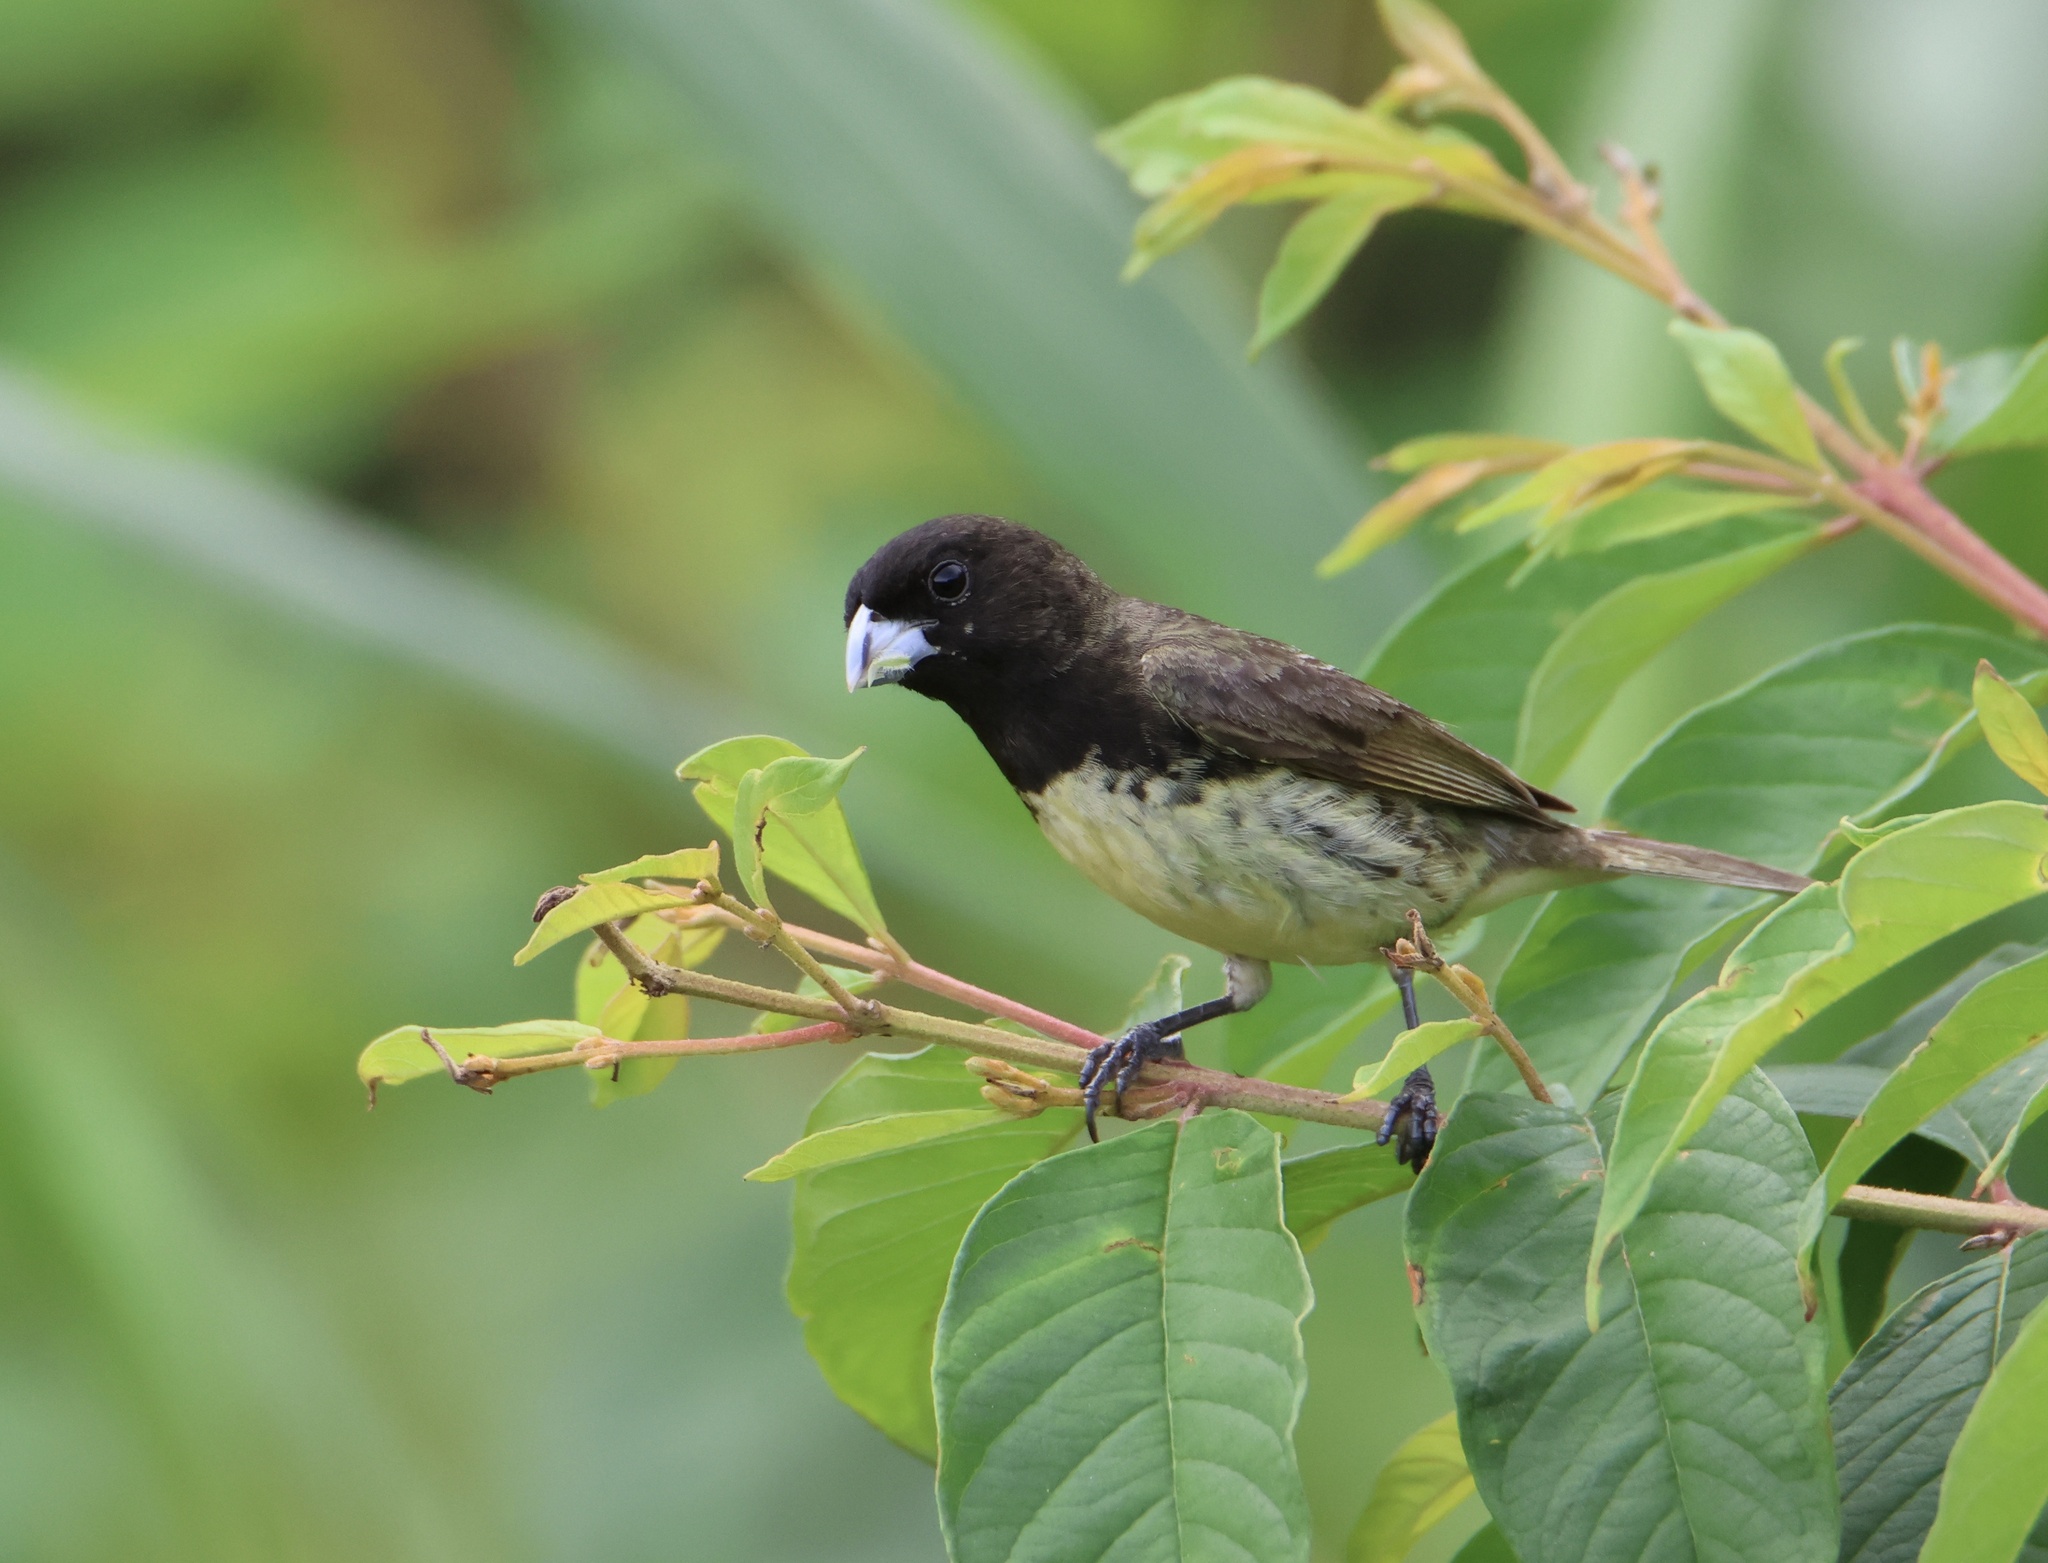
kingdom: Animalia
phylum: Chordata
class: Aves
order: Passeriformes
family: Thraupidae
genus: Sporophila
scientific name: Sporophila nigricollis
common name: Yellow-bellied seedeater
